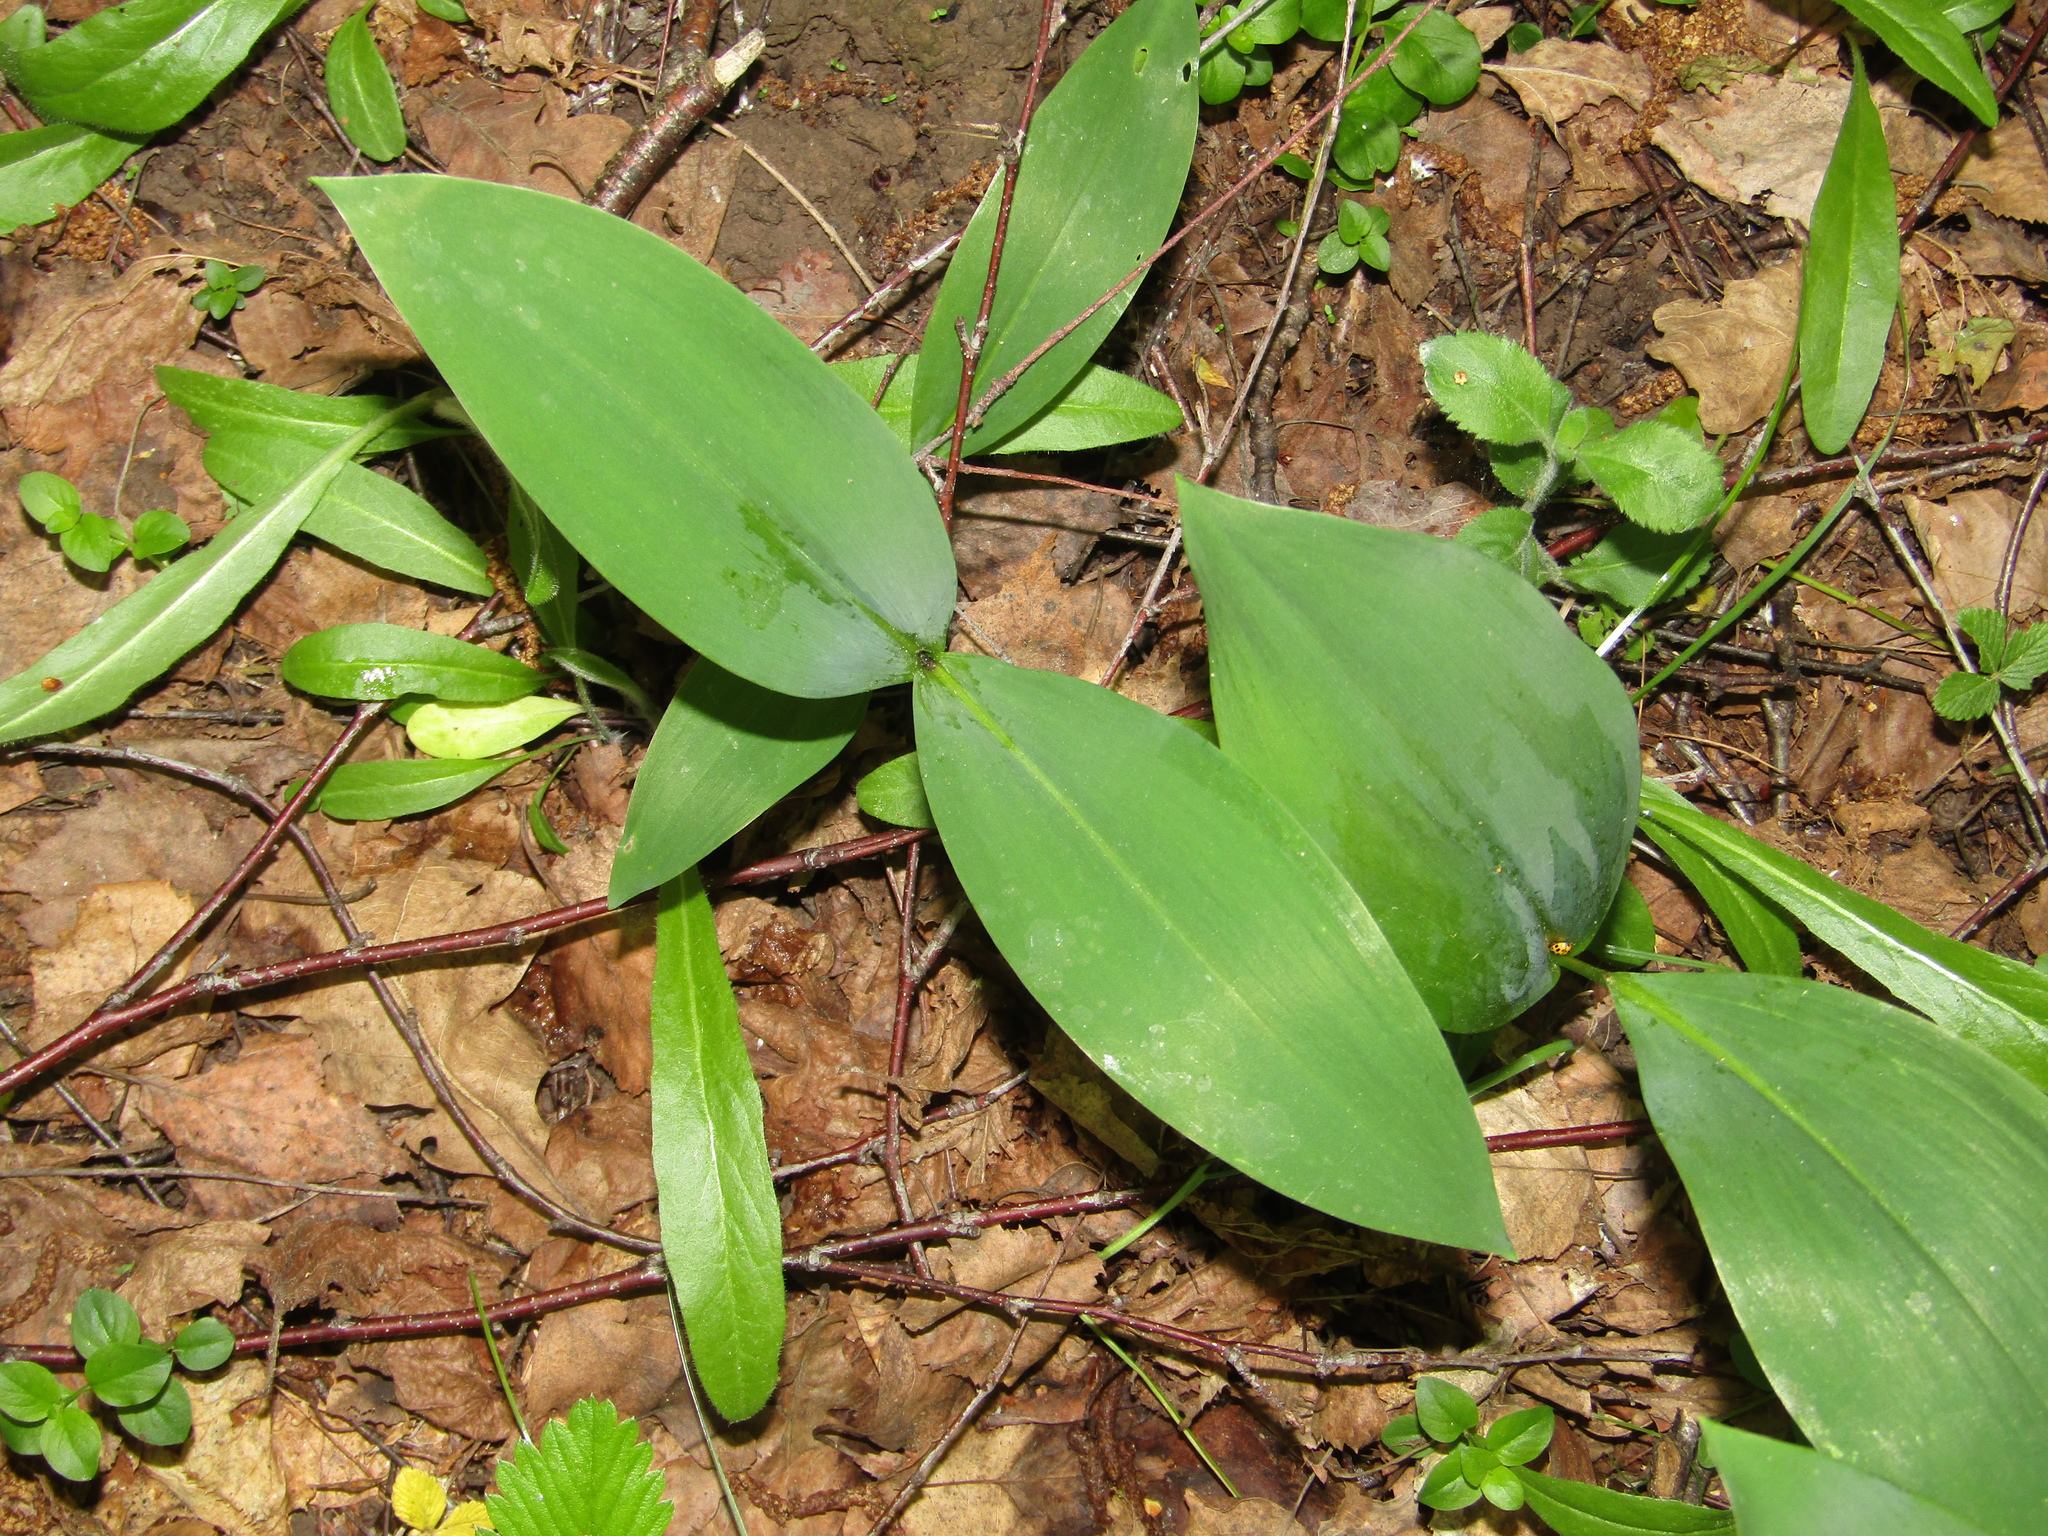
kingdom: Plantae
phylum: Tracheophyta
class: Liliopsida
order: Asparagales
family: Asparagaceae
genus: Convallaria
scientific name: Convallaria majalis
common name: Lily-of-the-valley
